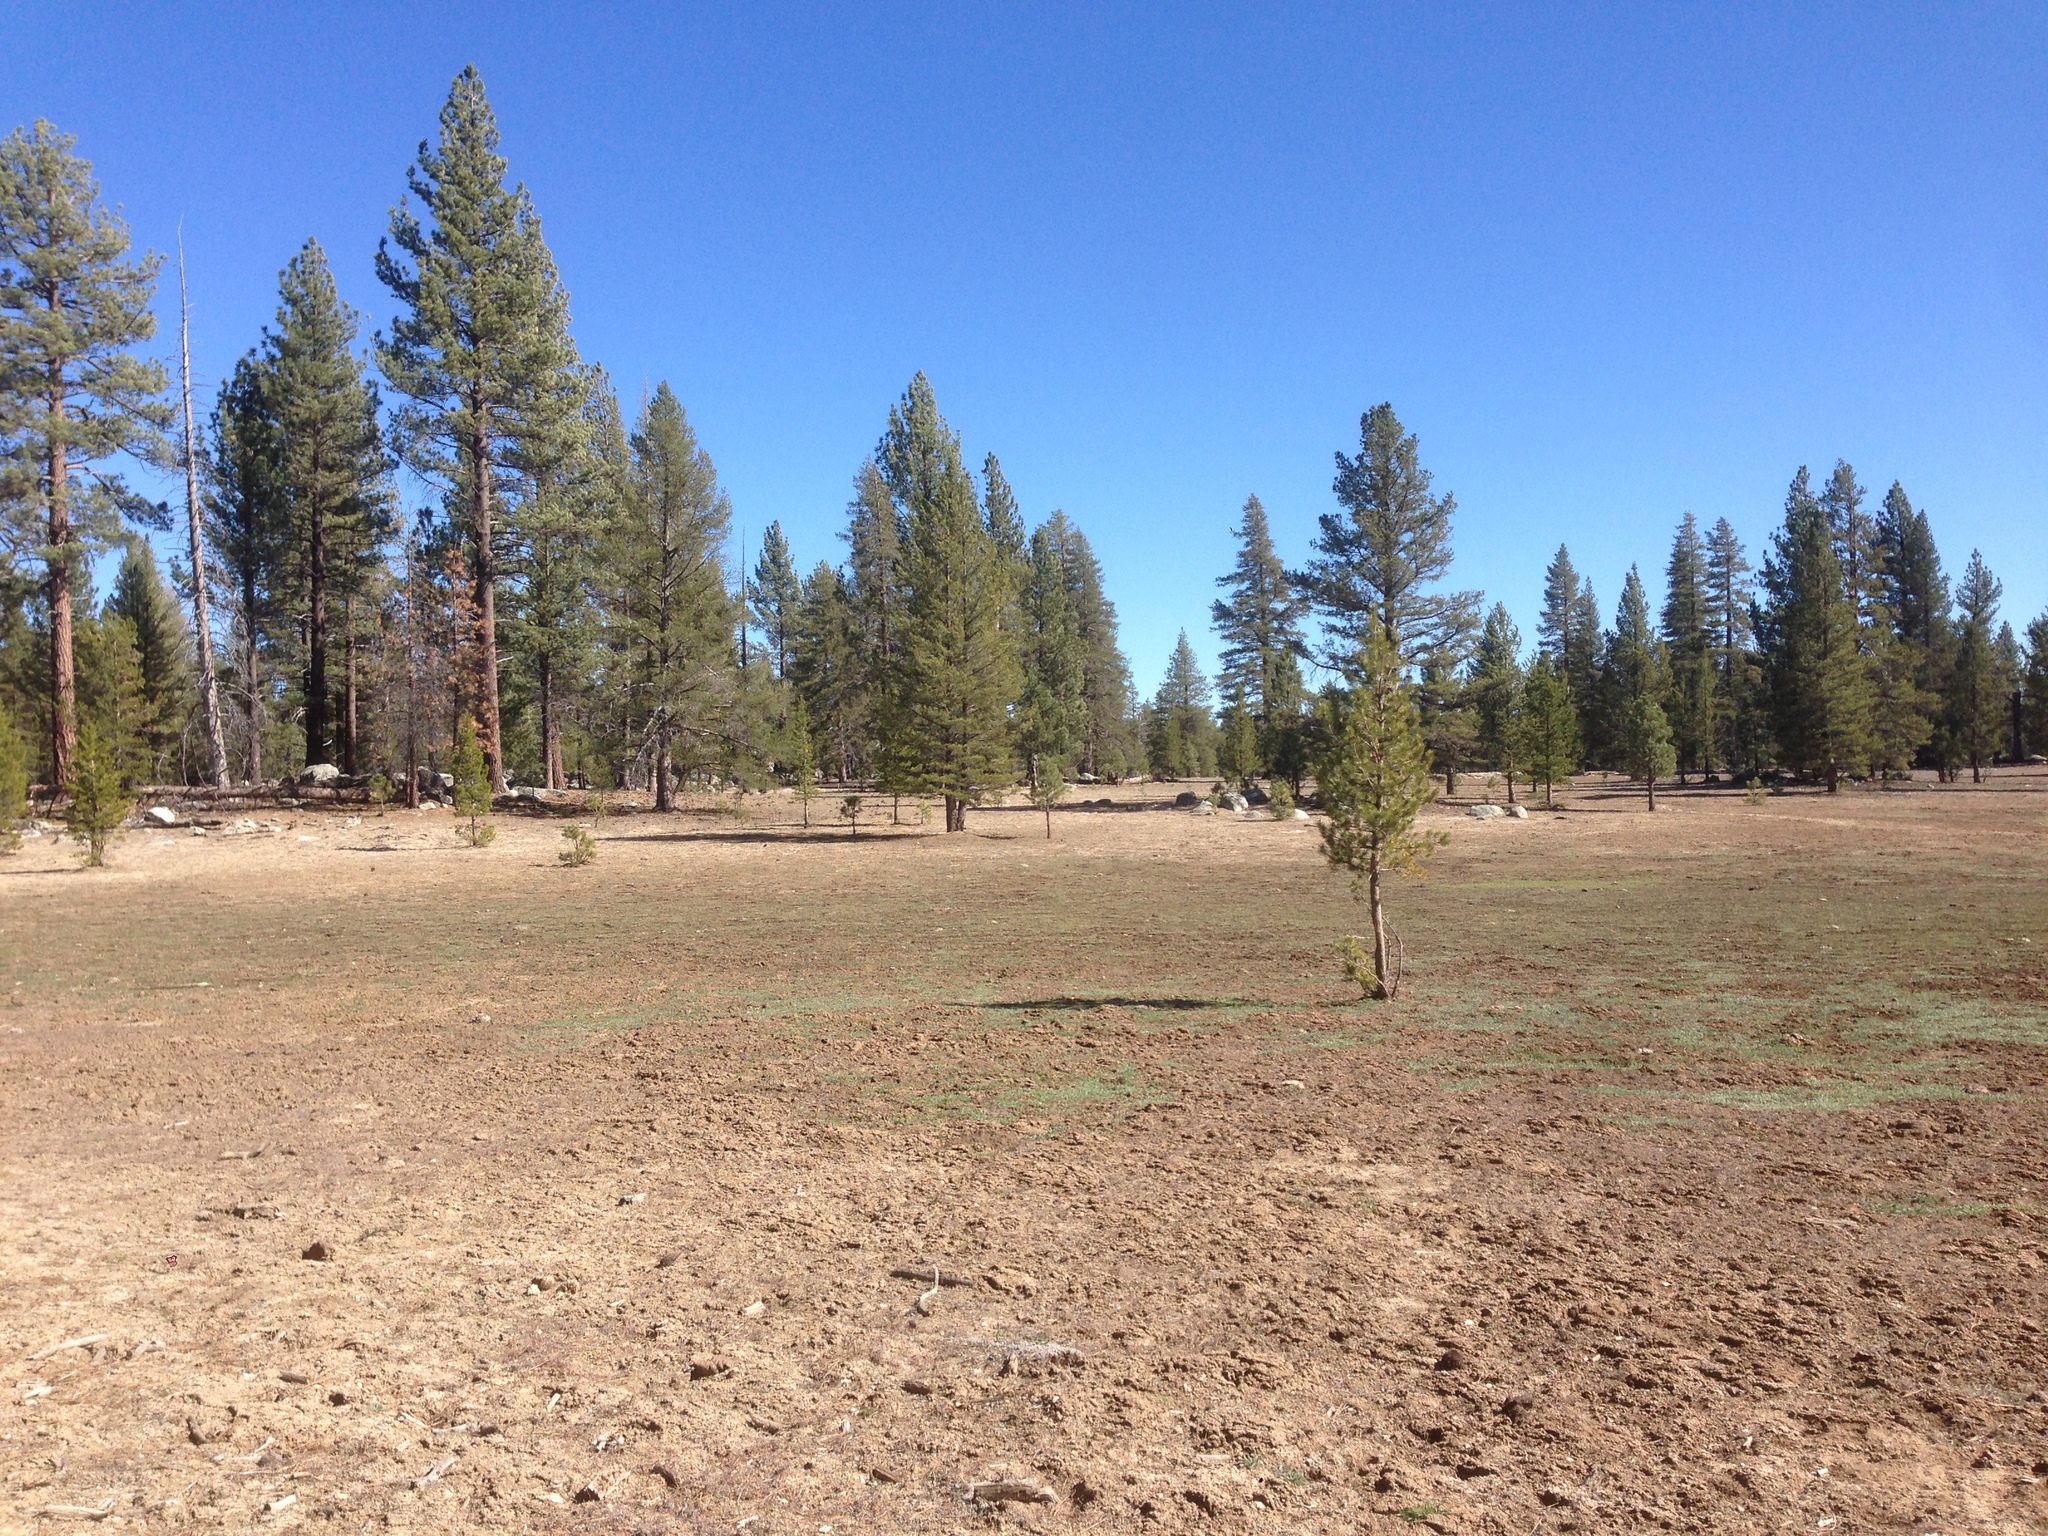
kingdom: Plantae
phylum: Tracheophyta
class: Pinopsida
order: Pinales
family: Pinaceae
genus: Pinus
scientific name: Pinus contorta
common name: Lodgepole pine
